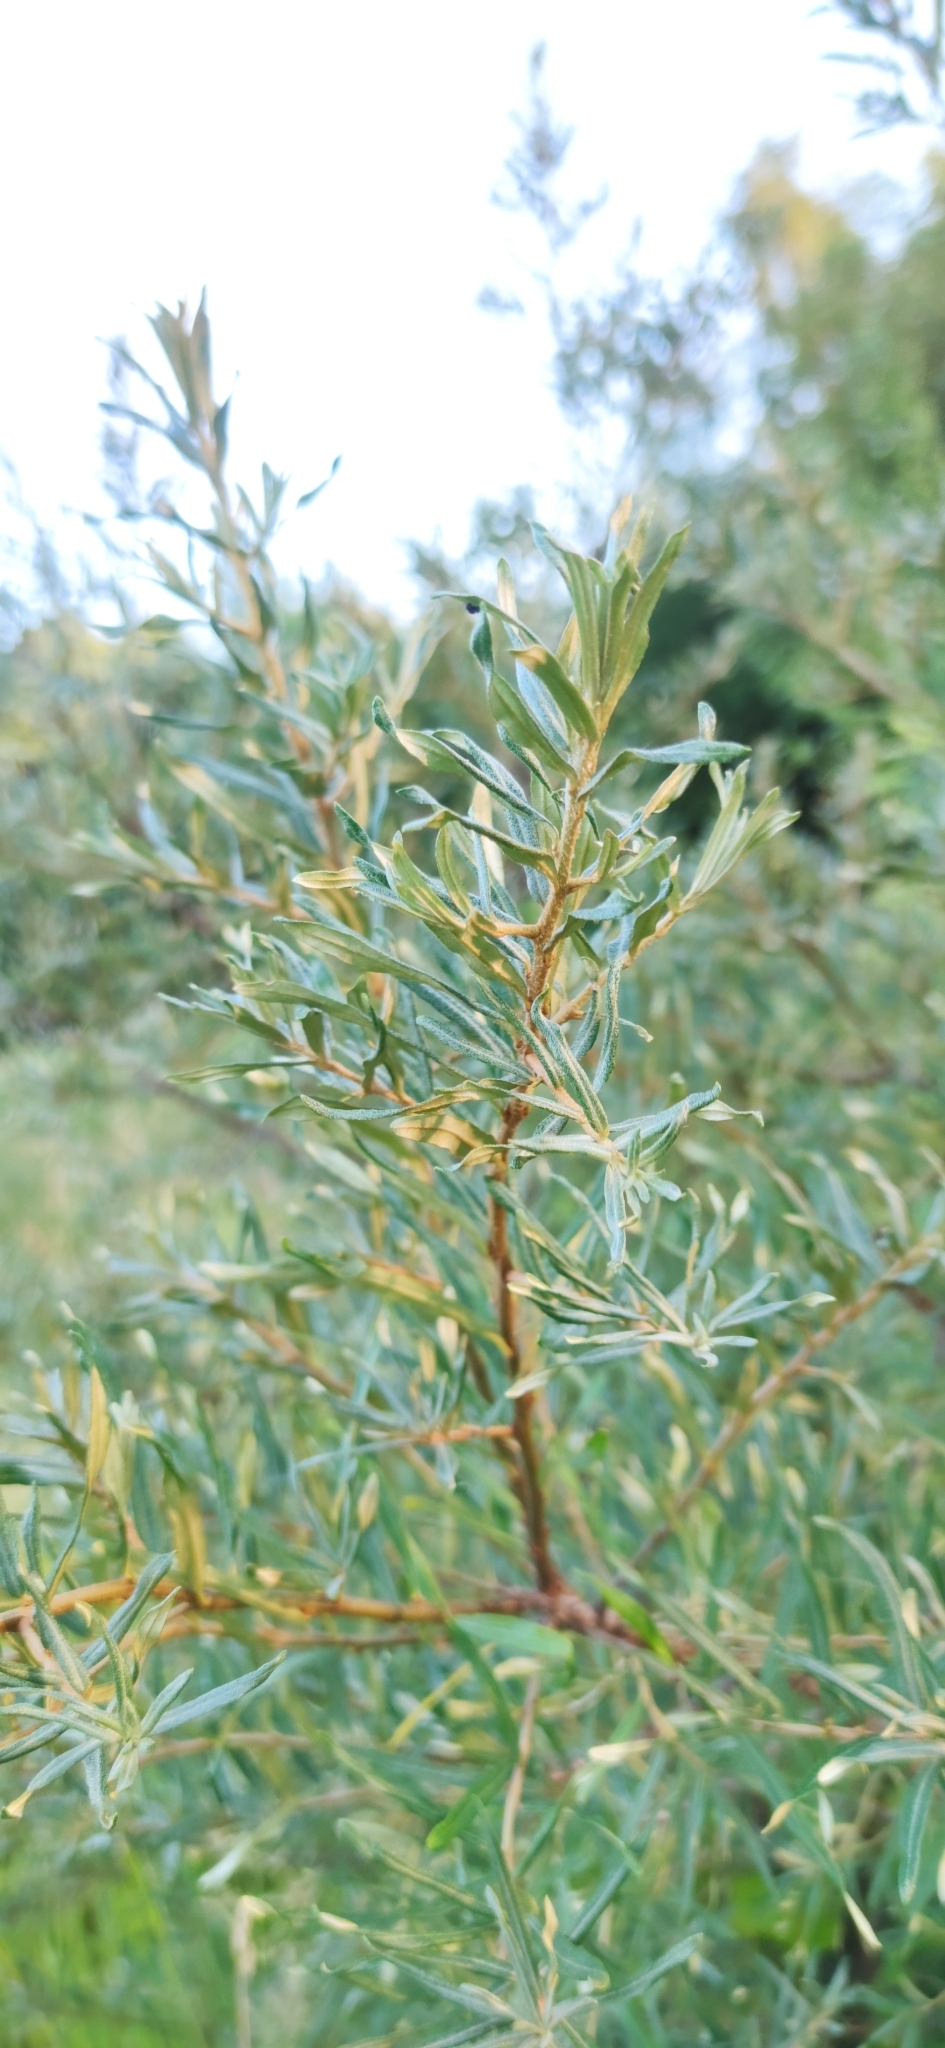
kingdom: Plantae
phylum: Tracheophyta
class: Magnoliopsida
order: Rosales
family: Elaeagnaceae
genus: Hippophae
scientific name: Hippophae rhamnoides
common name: Sea-buckthorn
